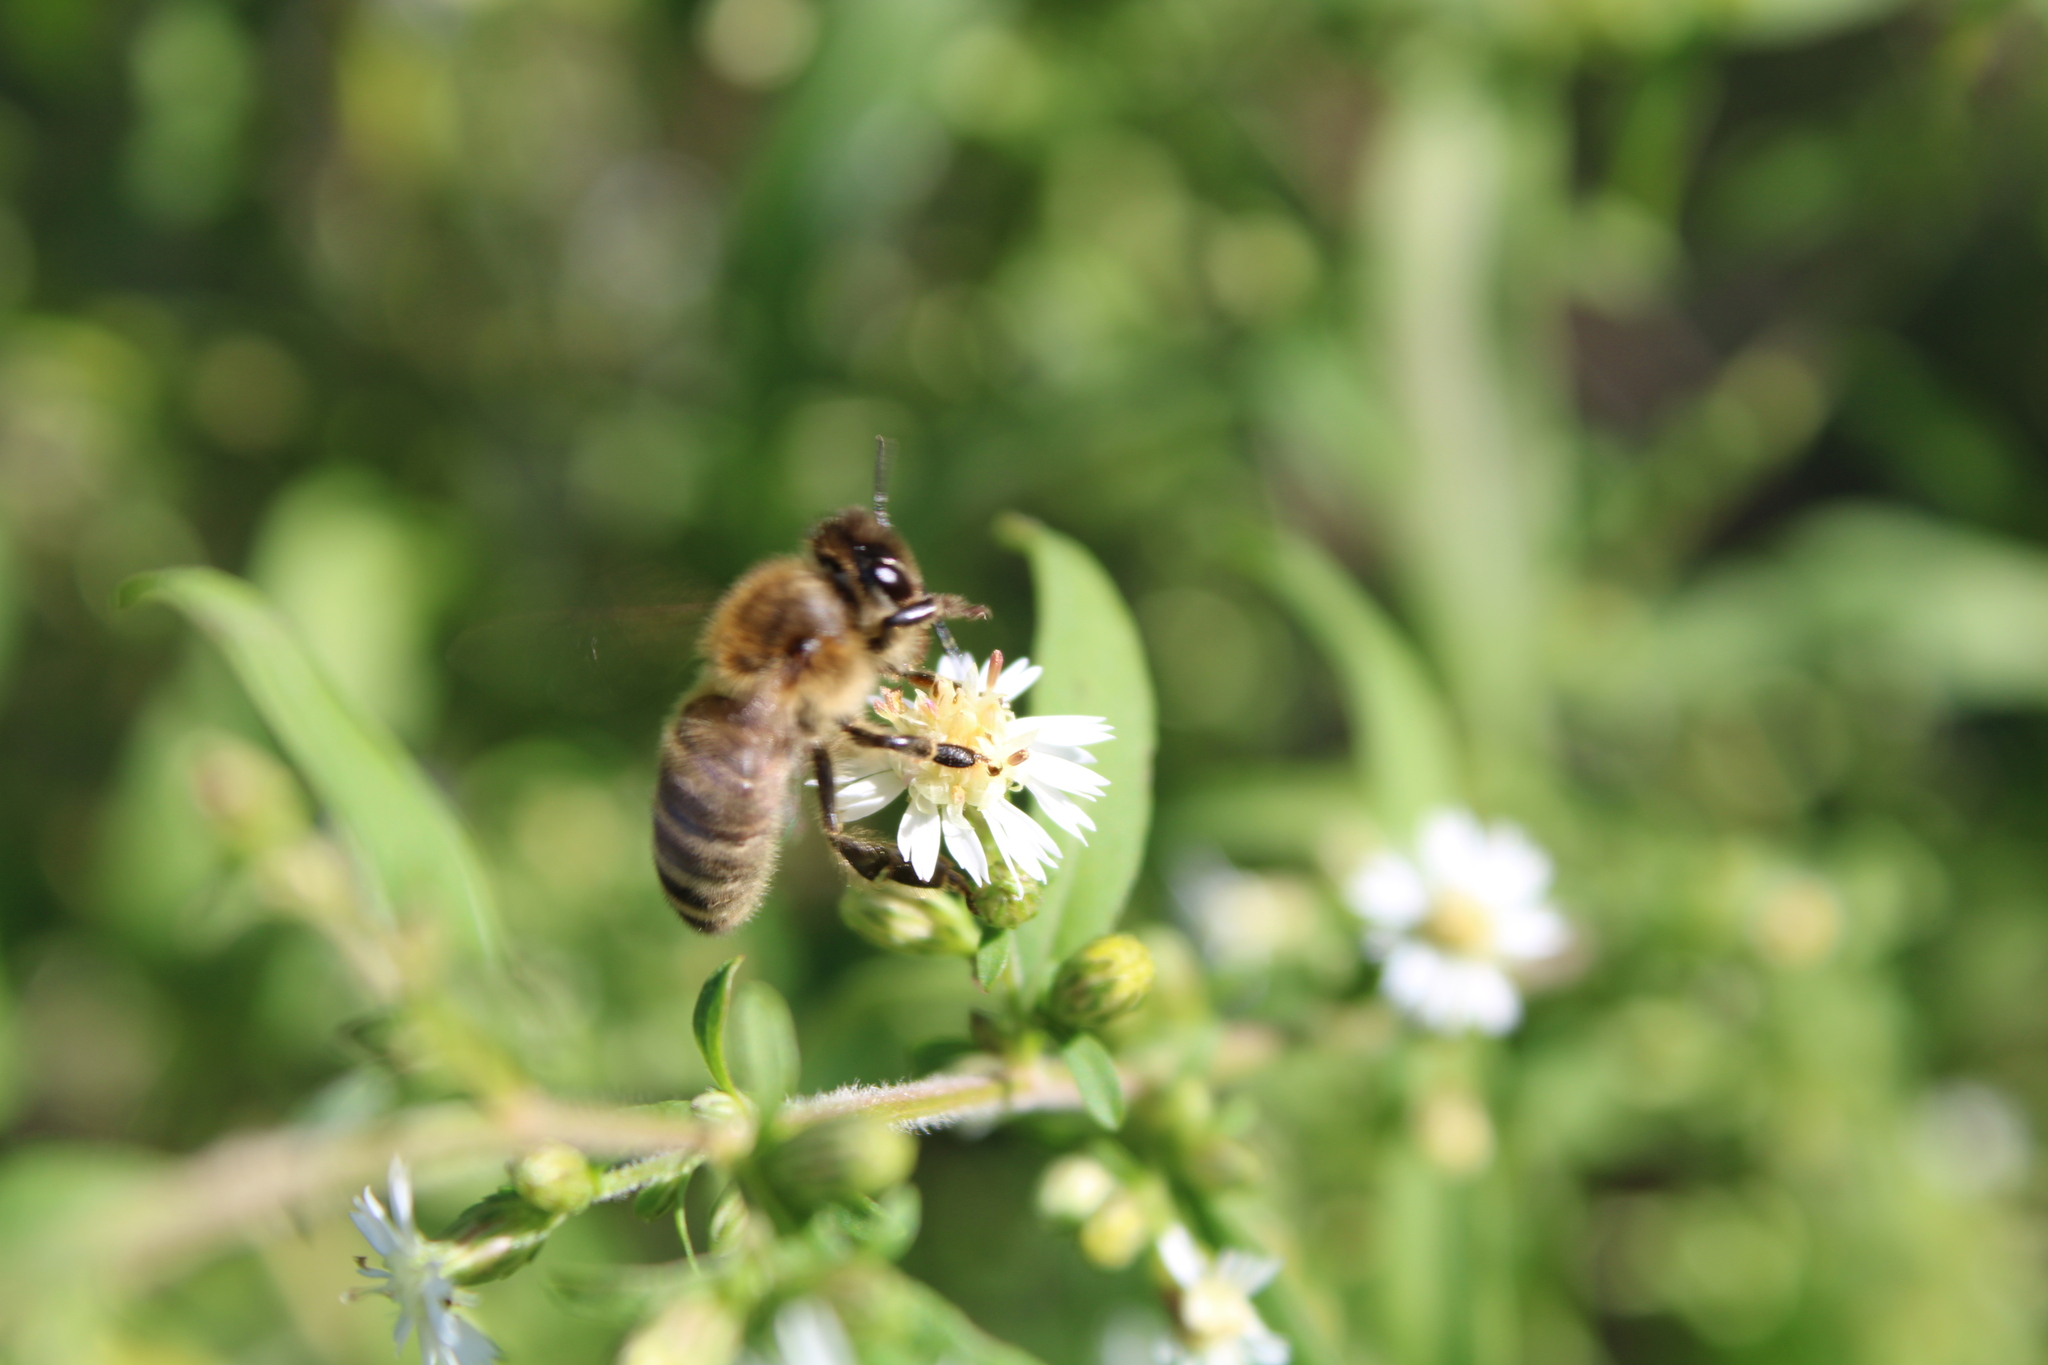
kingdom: Animalia
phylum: Arthropoda
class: Insecta
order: Hymenoptera
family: Apidae
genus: Apis
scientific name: Apis mellifera
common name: Honey bee
